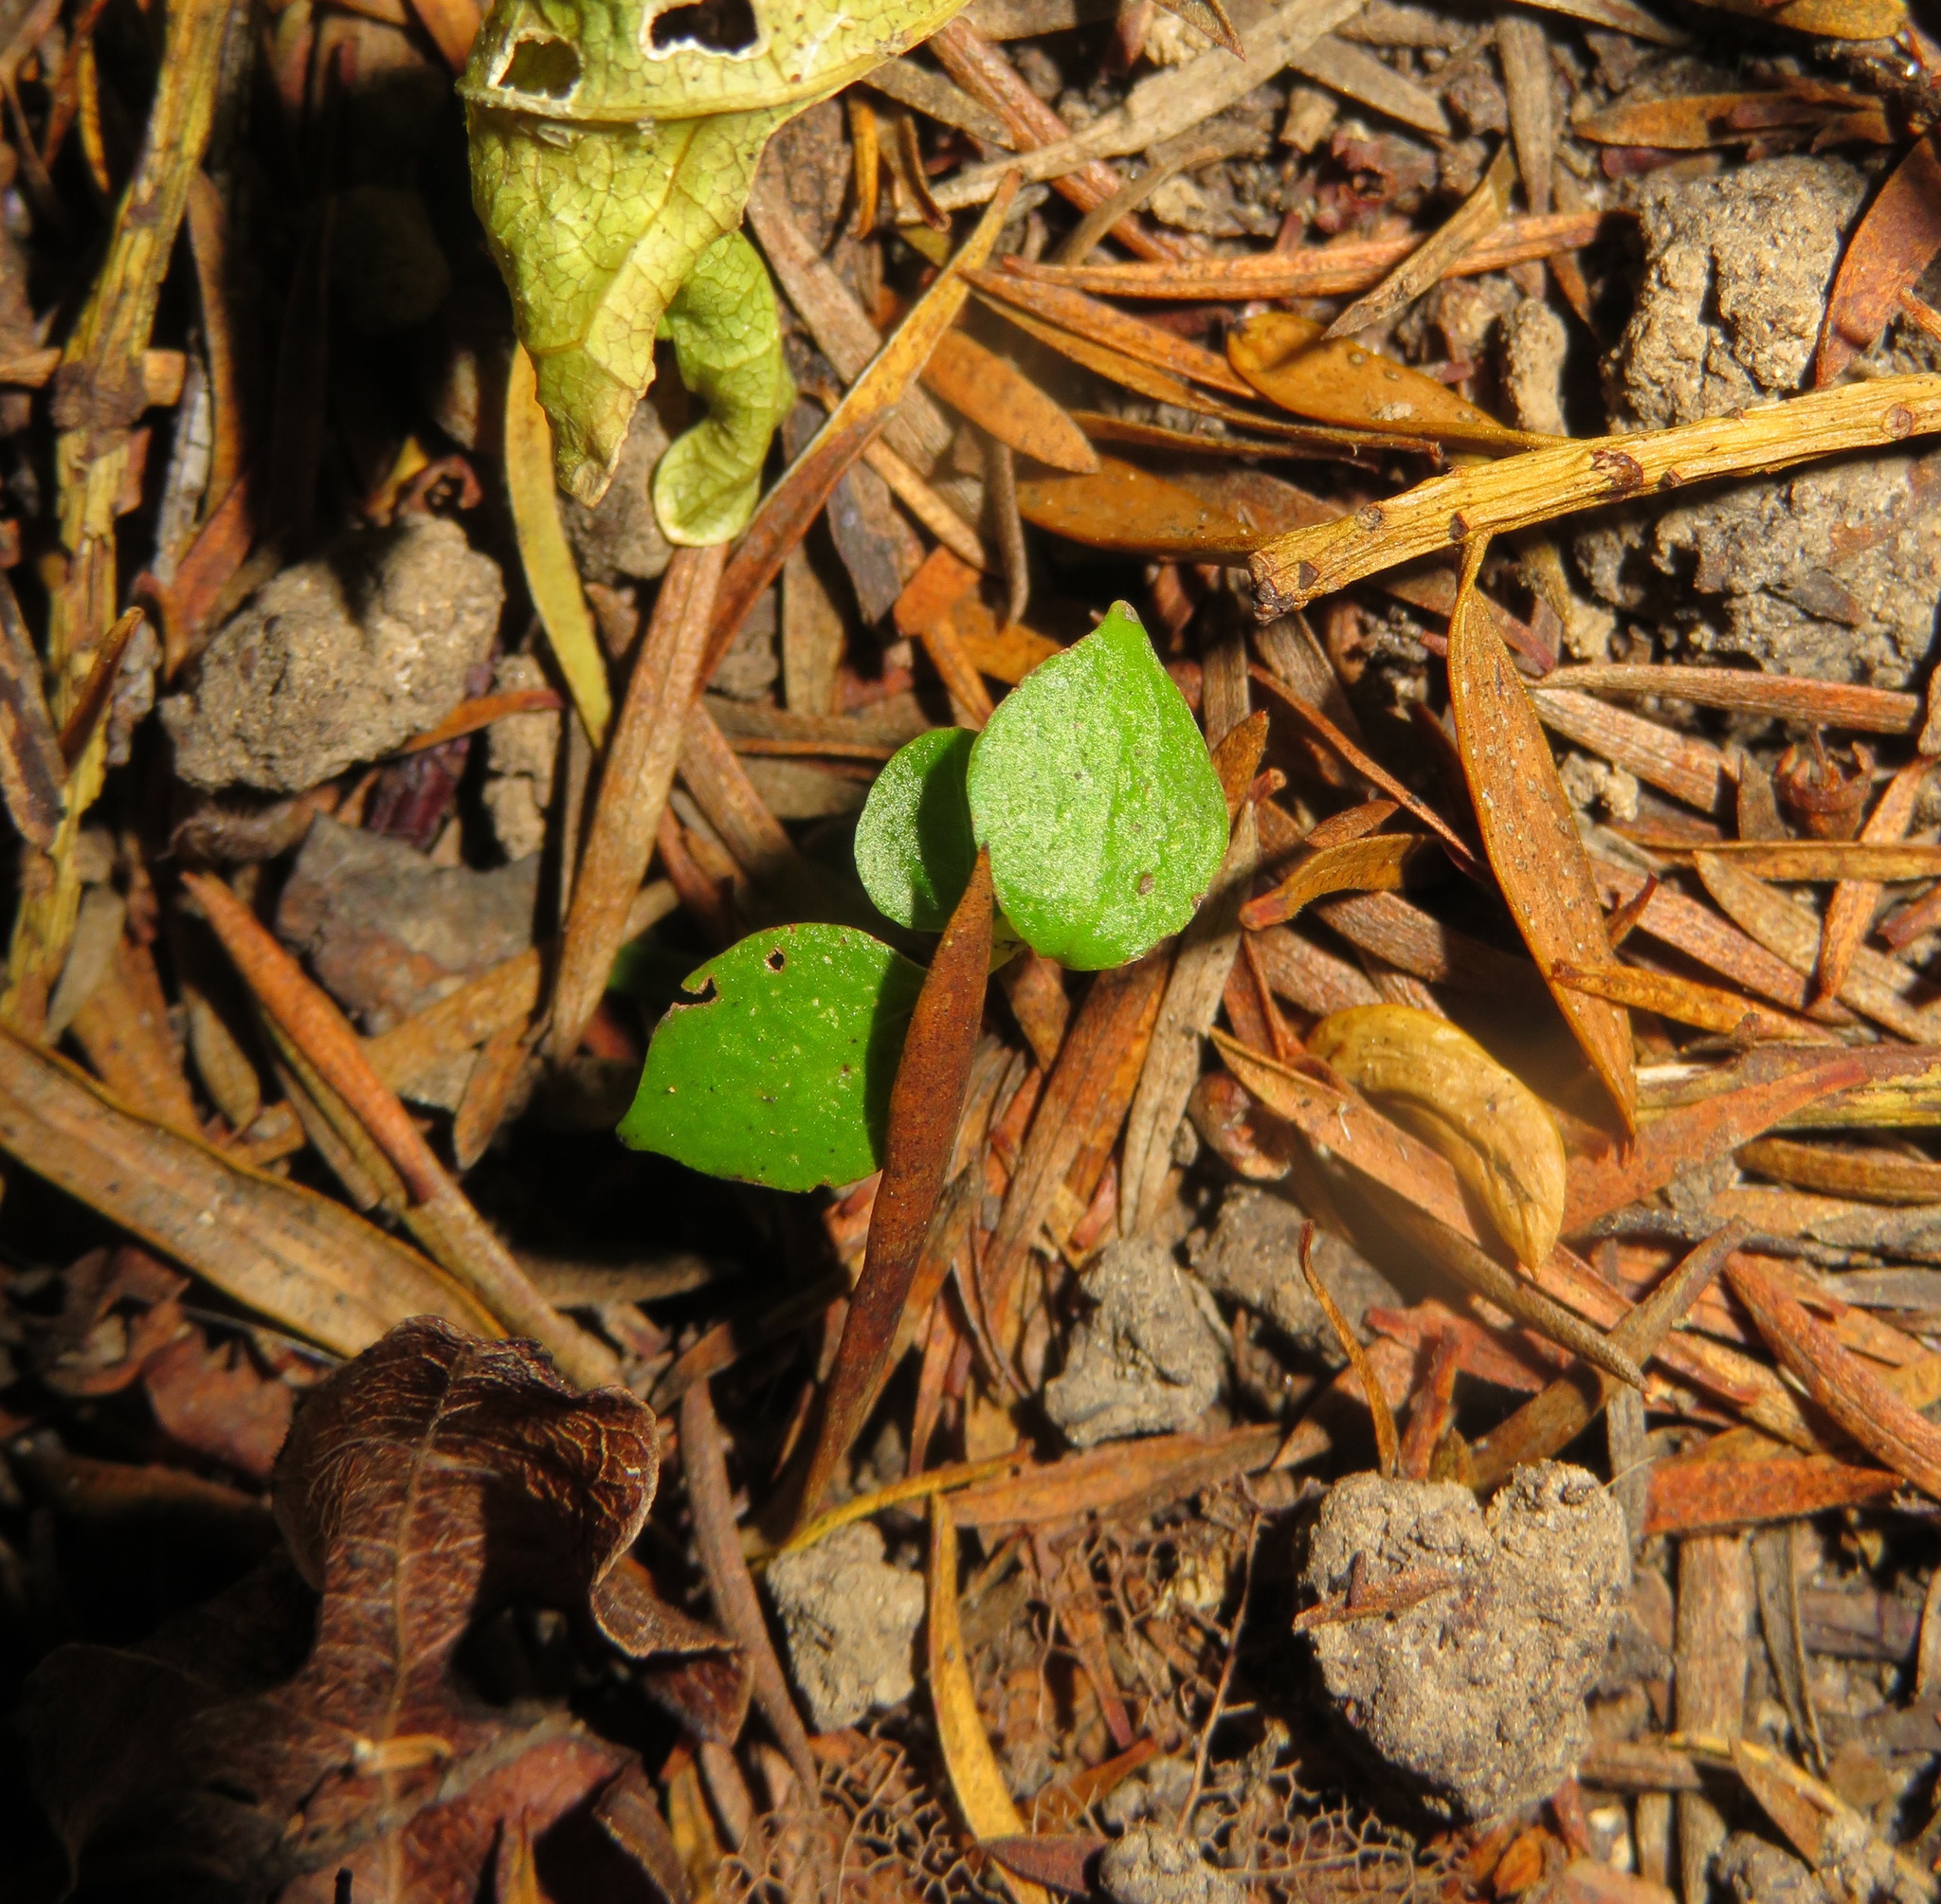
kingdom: Plantae
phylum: Tracheophyta
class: Magnoliopsida
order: Piperales
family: Piperaceae
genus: Macropiper
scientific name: Macropiper excelsum
